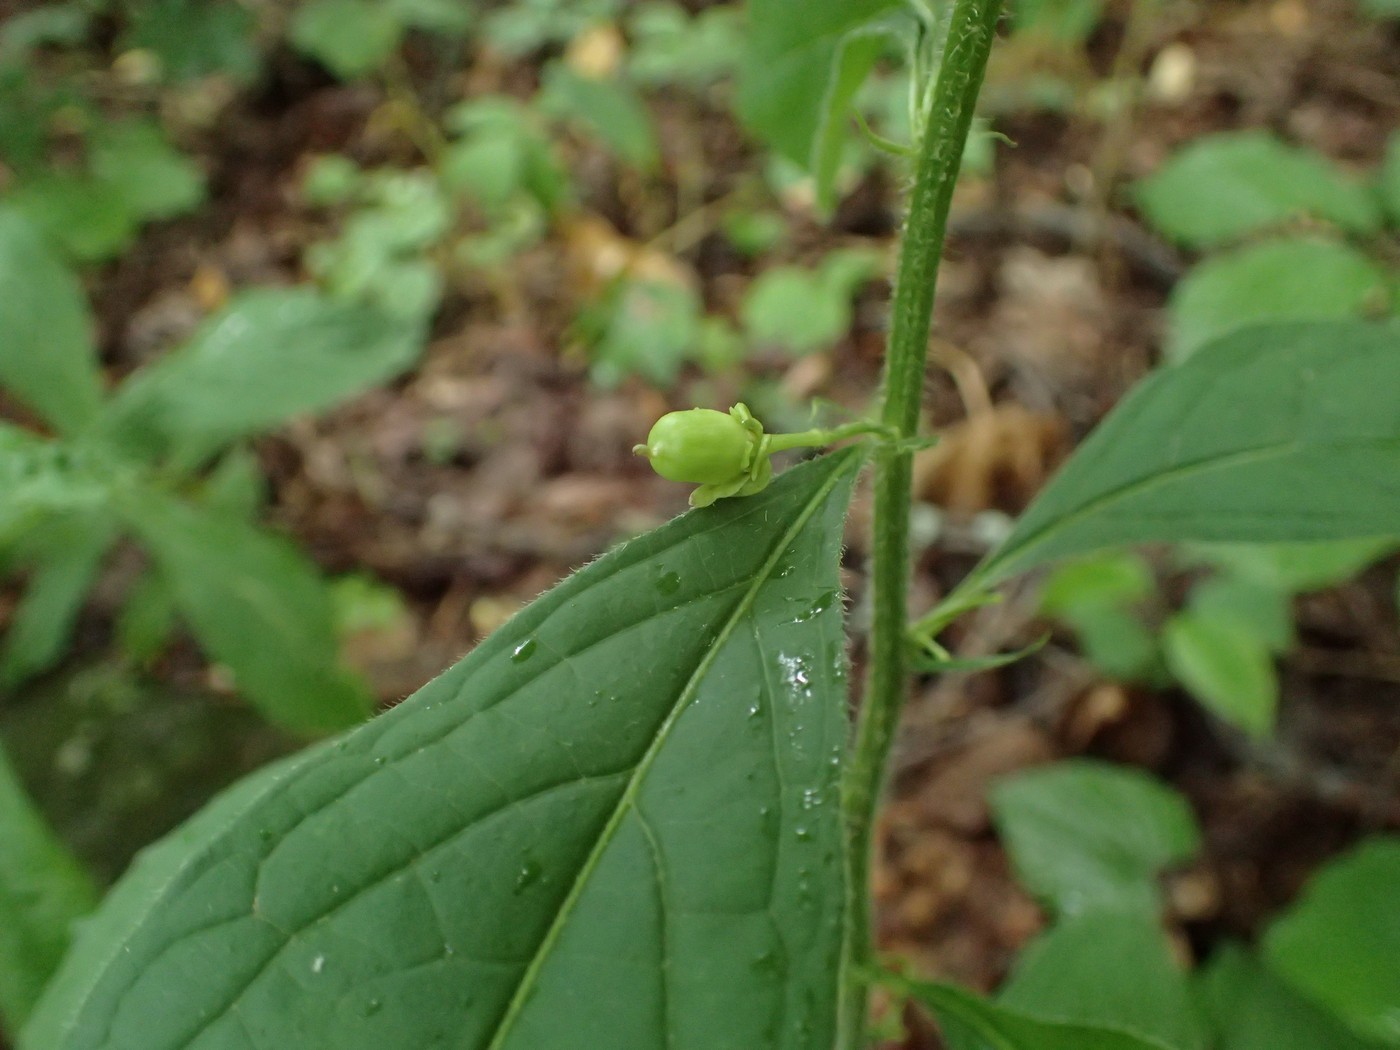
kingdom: Plantae
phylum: Tracheophyta
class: Magnoliopsida
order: Malpighiales
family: Violaceae
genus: Cubelium
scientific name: Cubelium concolor
